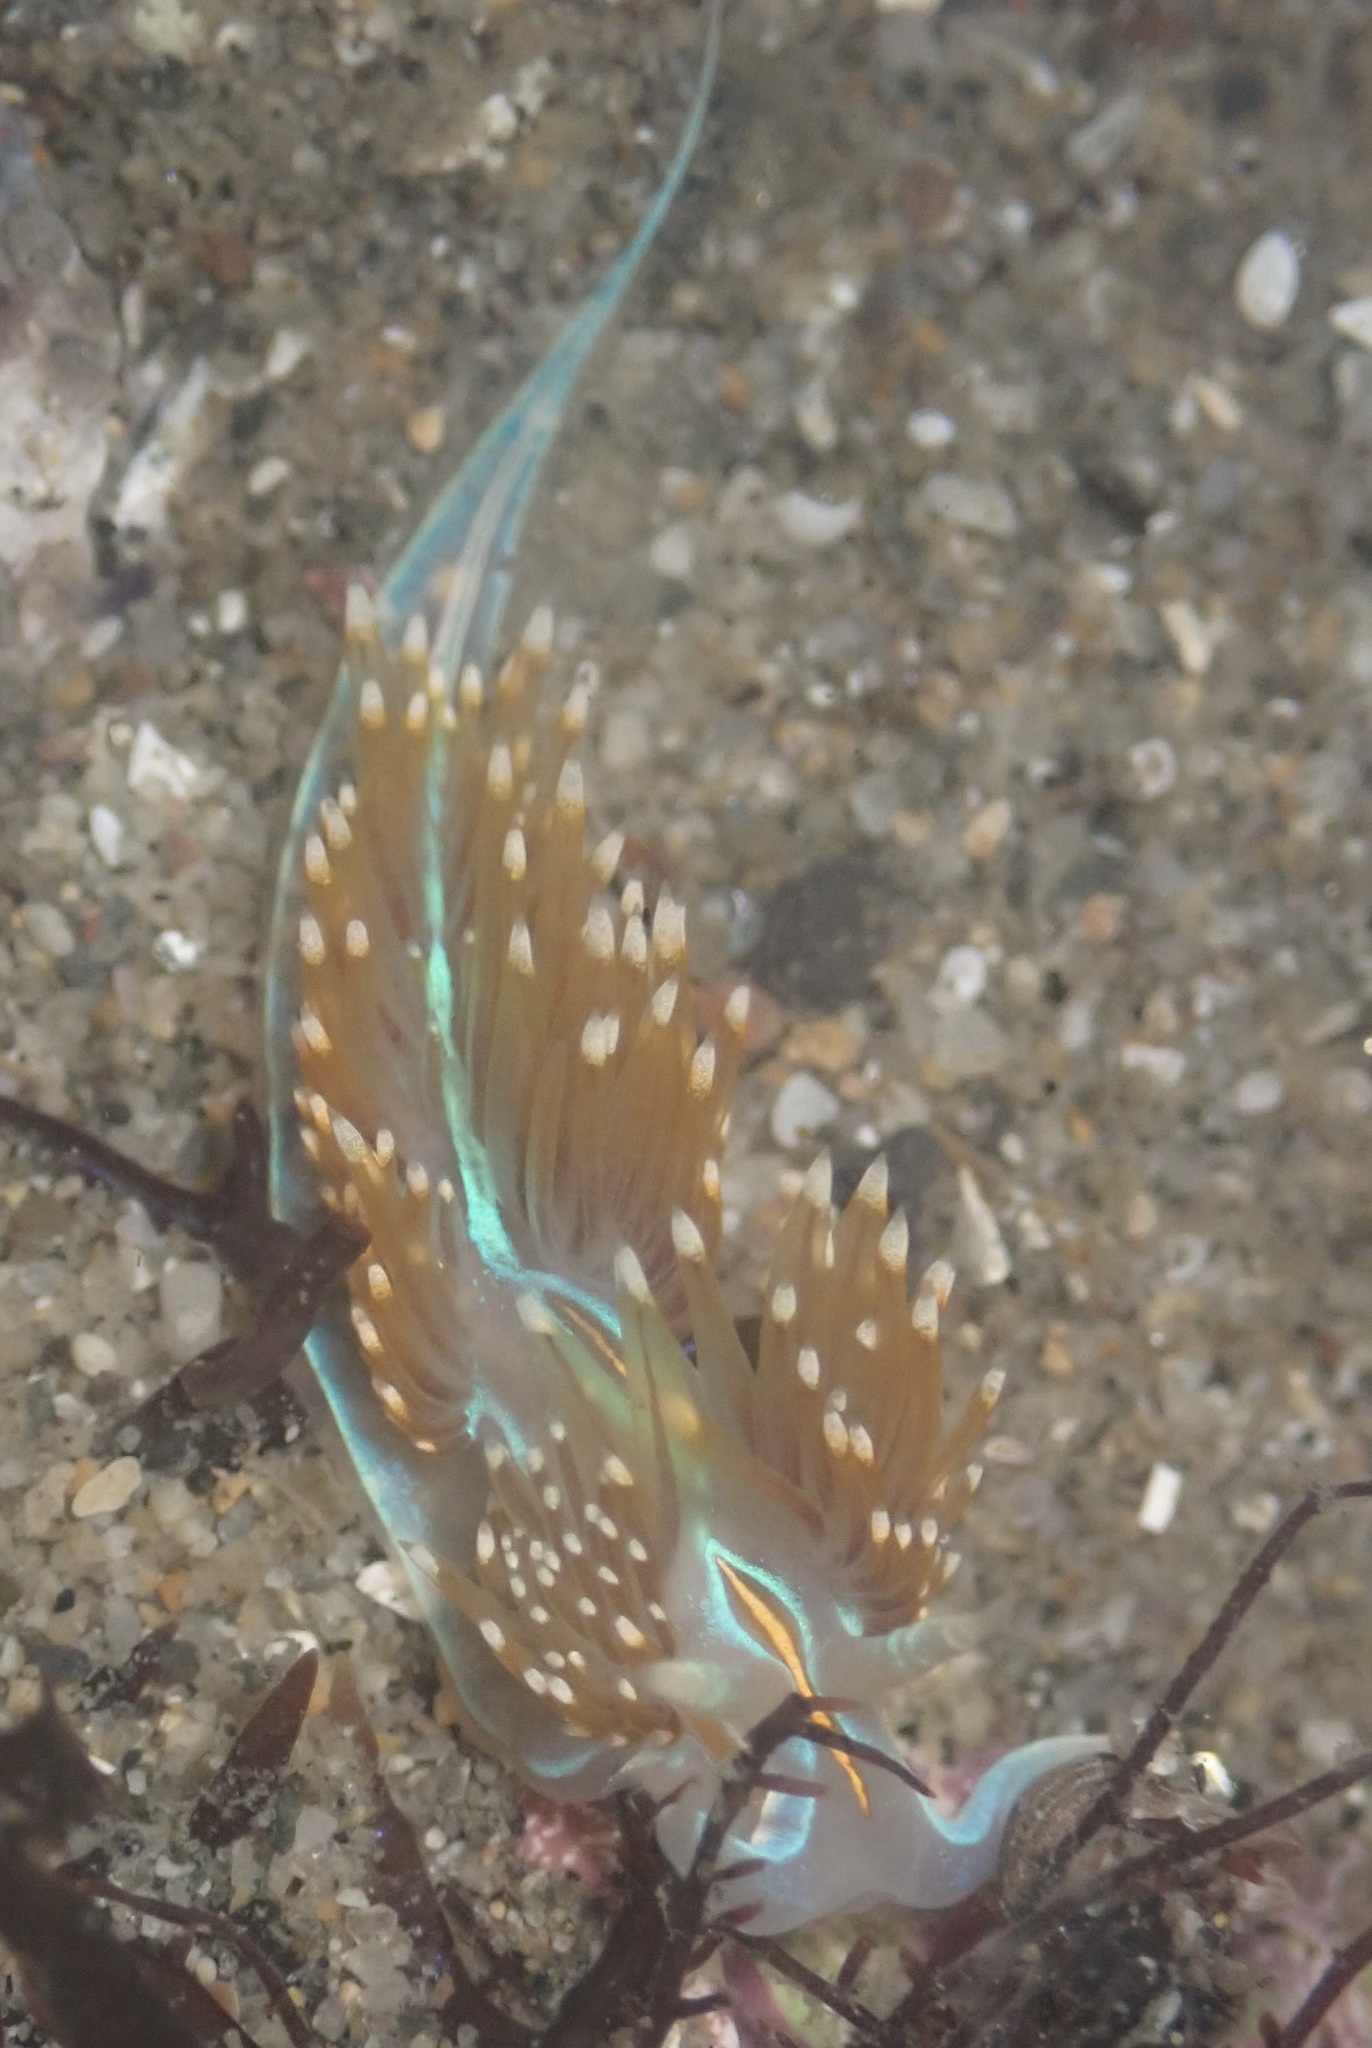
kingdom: Animalia
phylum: Mollusca
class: Gastropoda
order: Nudibranchia
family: Myrrhinidae
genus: Hermissenda
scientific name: Hermissenda opalescens
